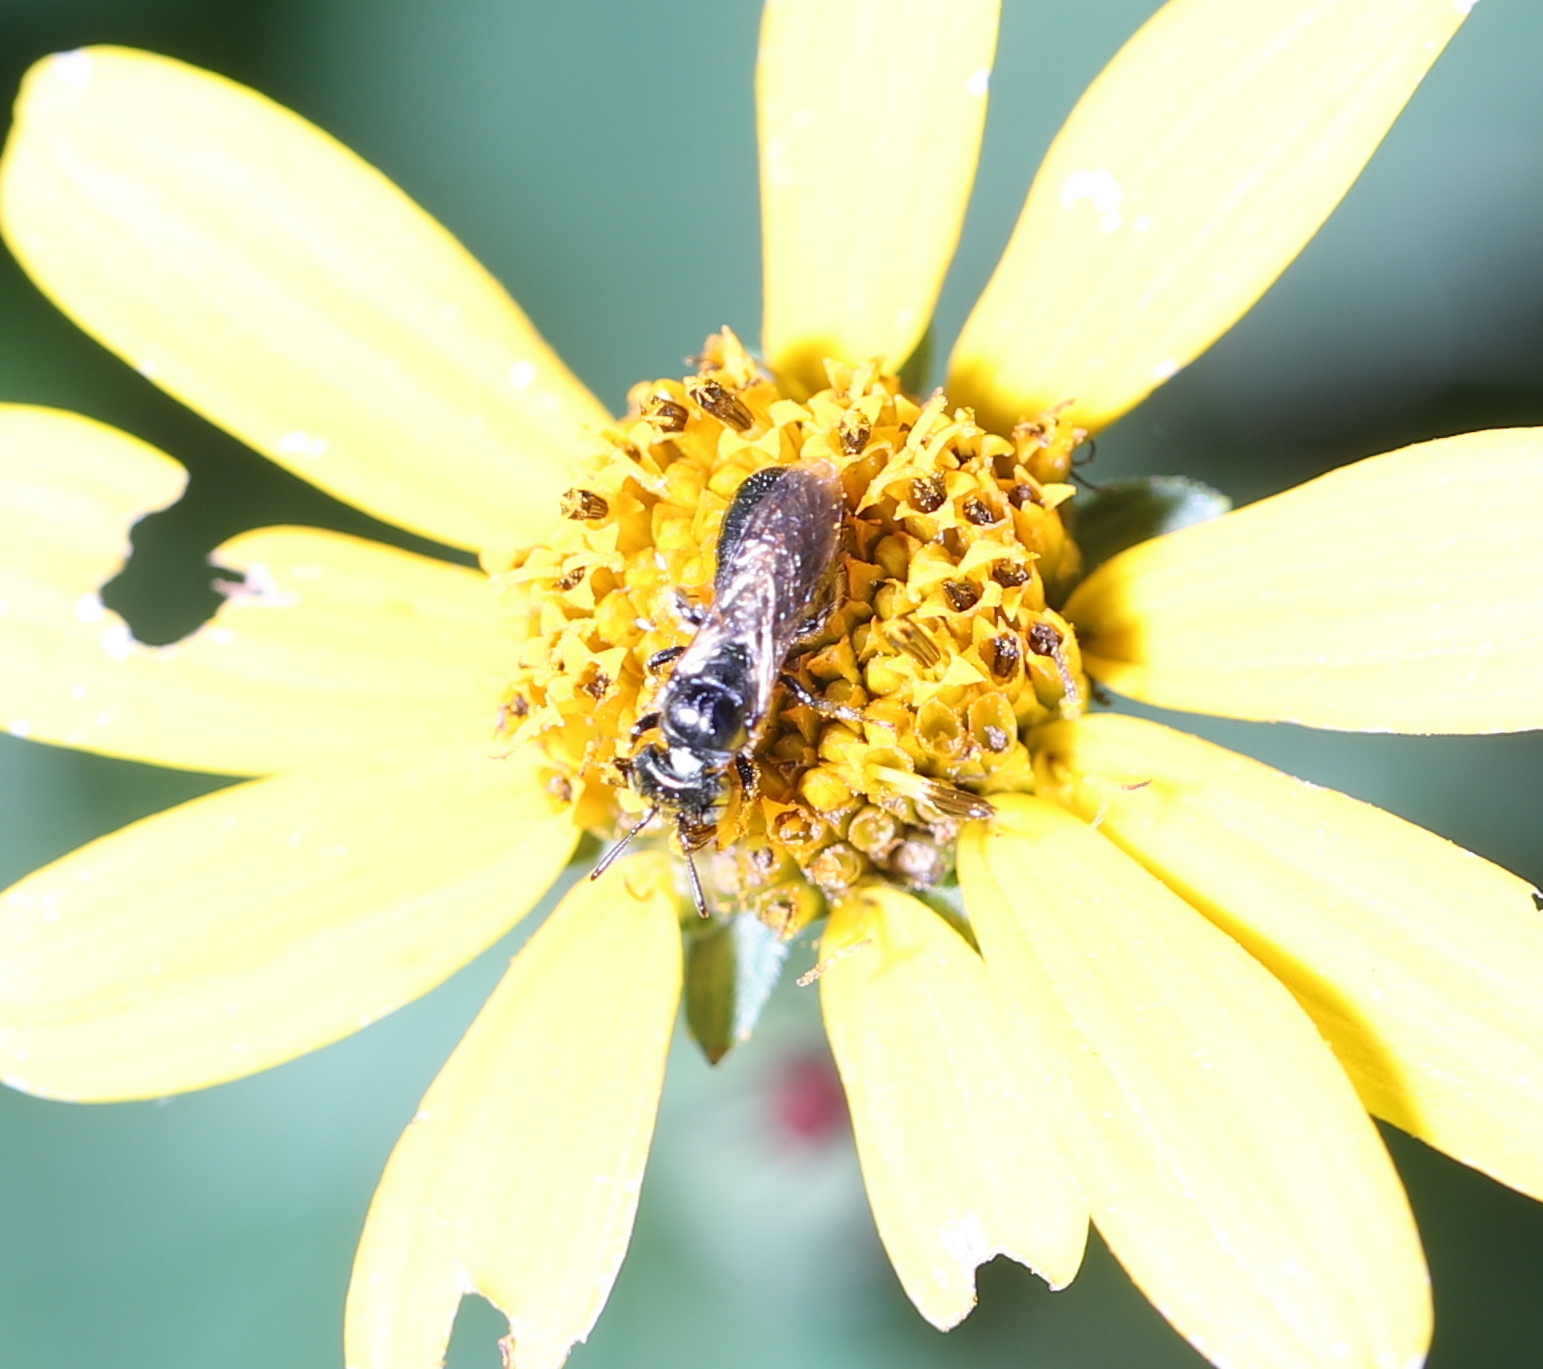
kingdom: Animalia
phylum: Arthropoda
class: Insecta
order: Hymenoptera
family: Apidae
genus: Zadontomerus
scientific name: Zadontomerus
